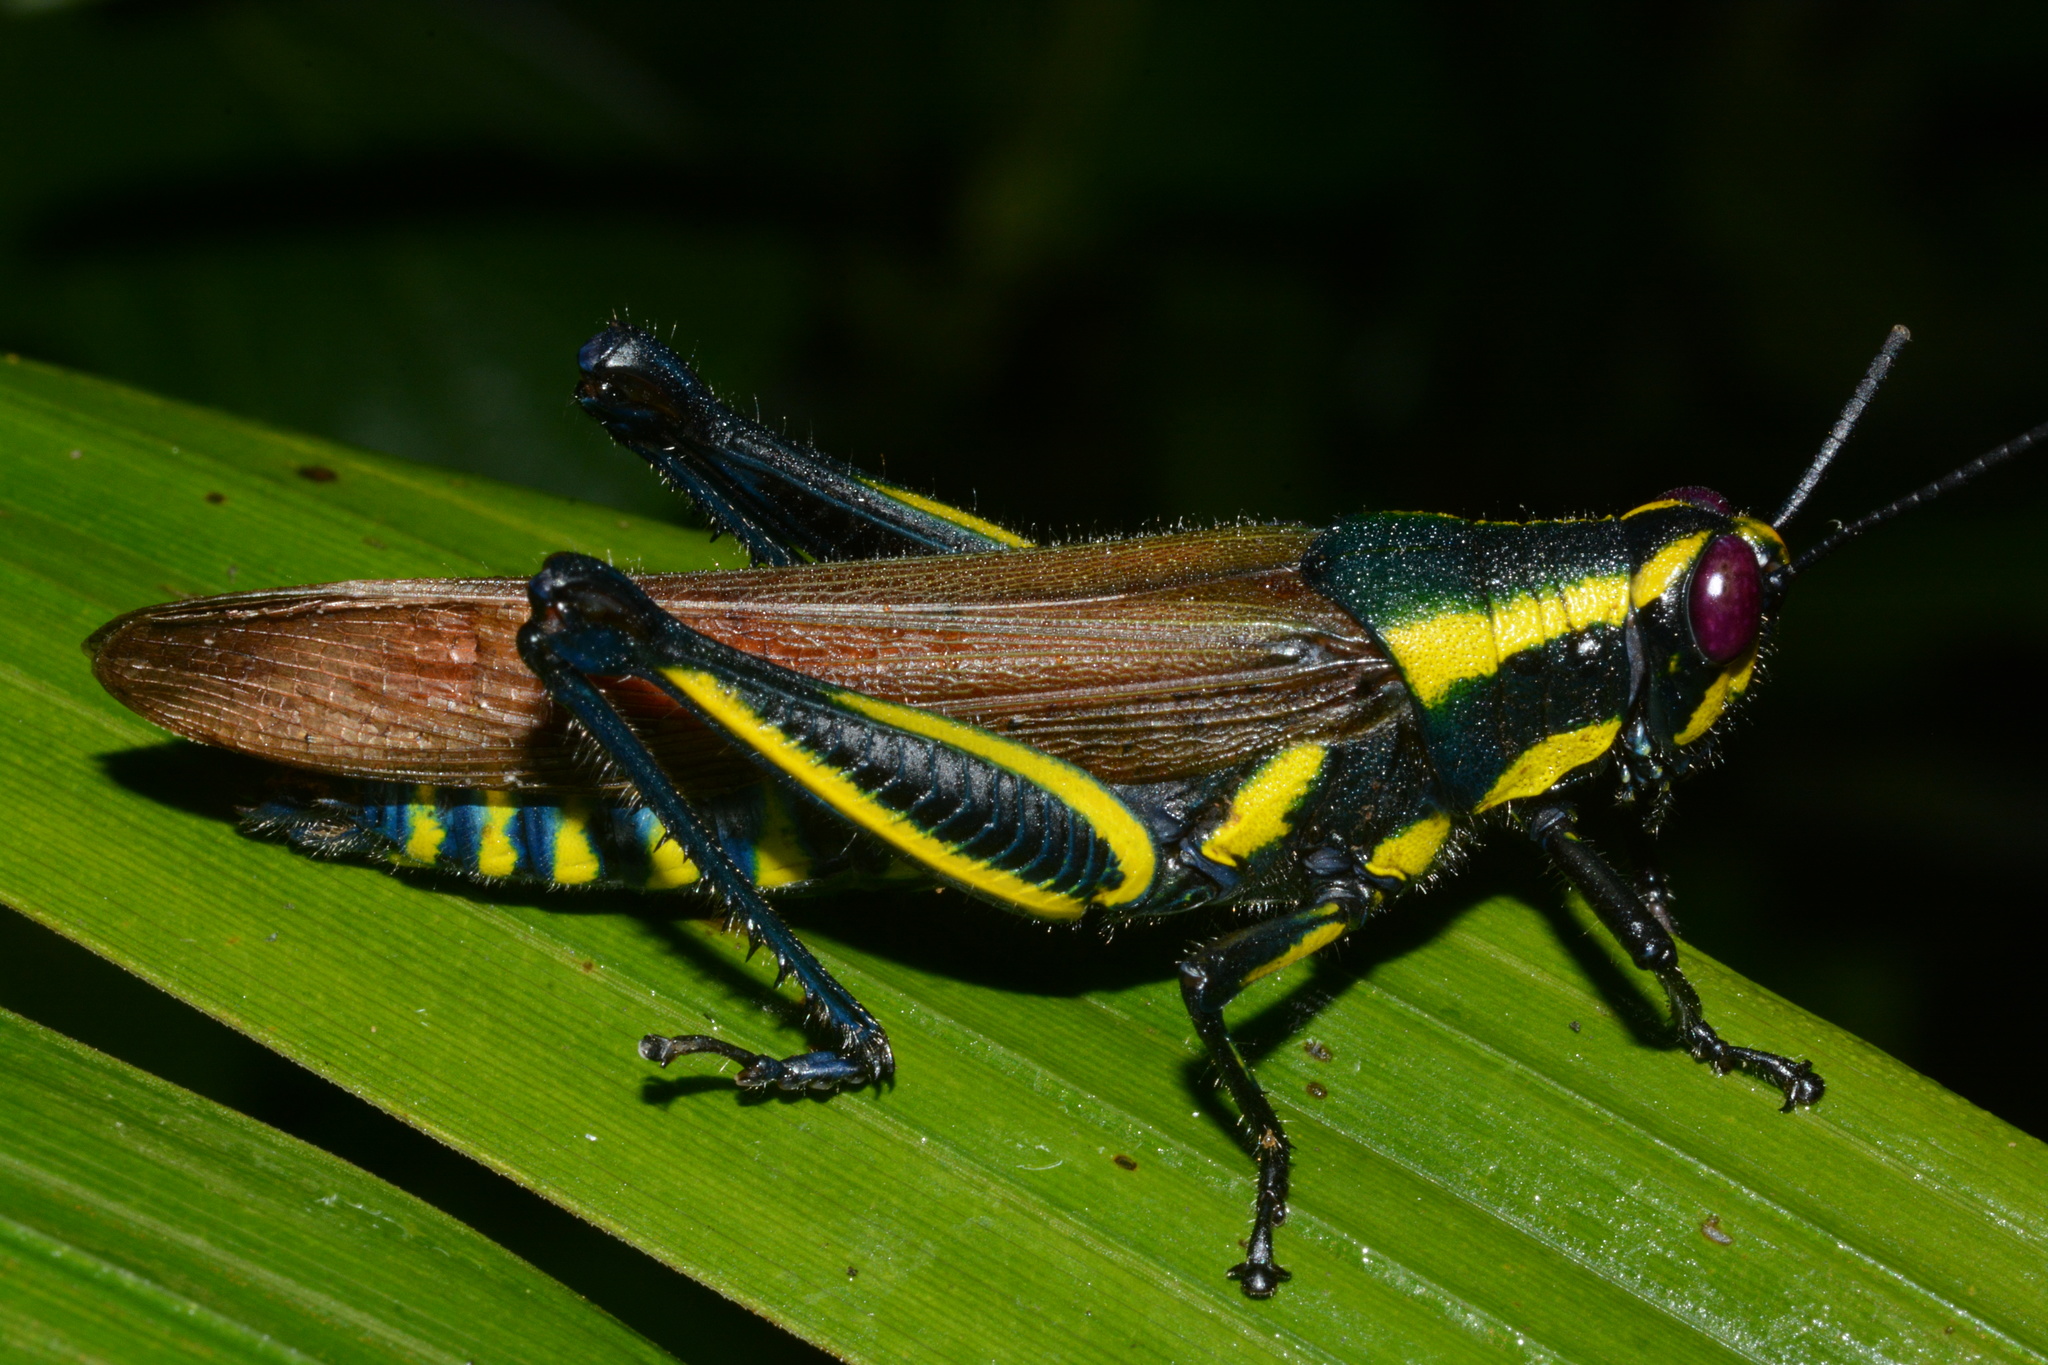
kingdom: Animalia
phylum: Arthropoda
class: Insecta
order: Orthoptera
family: Acrididae
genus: Eupropacris
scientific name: Eupropacris cylindricollis
